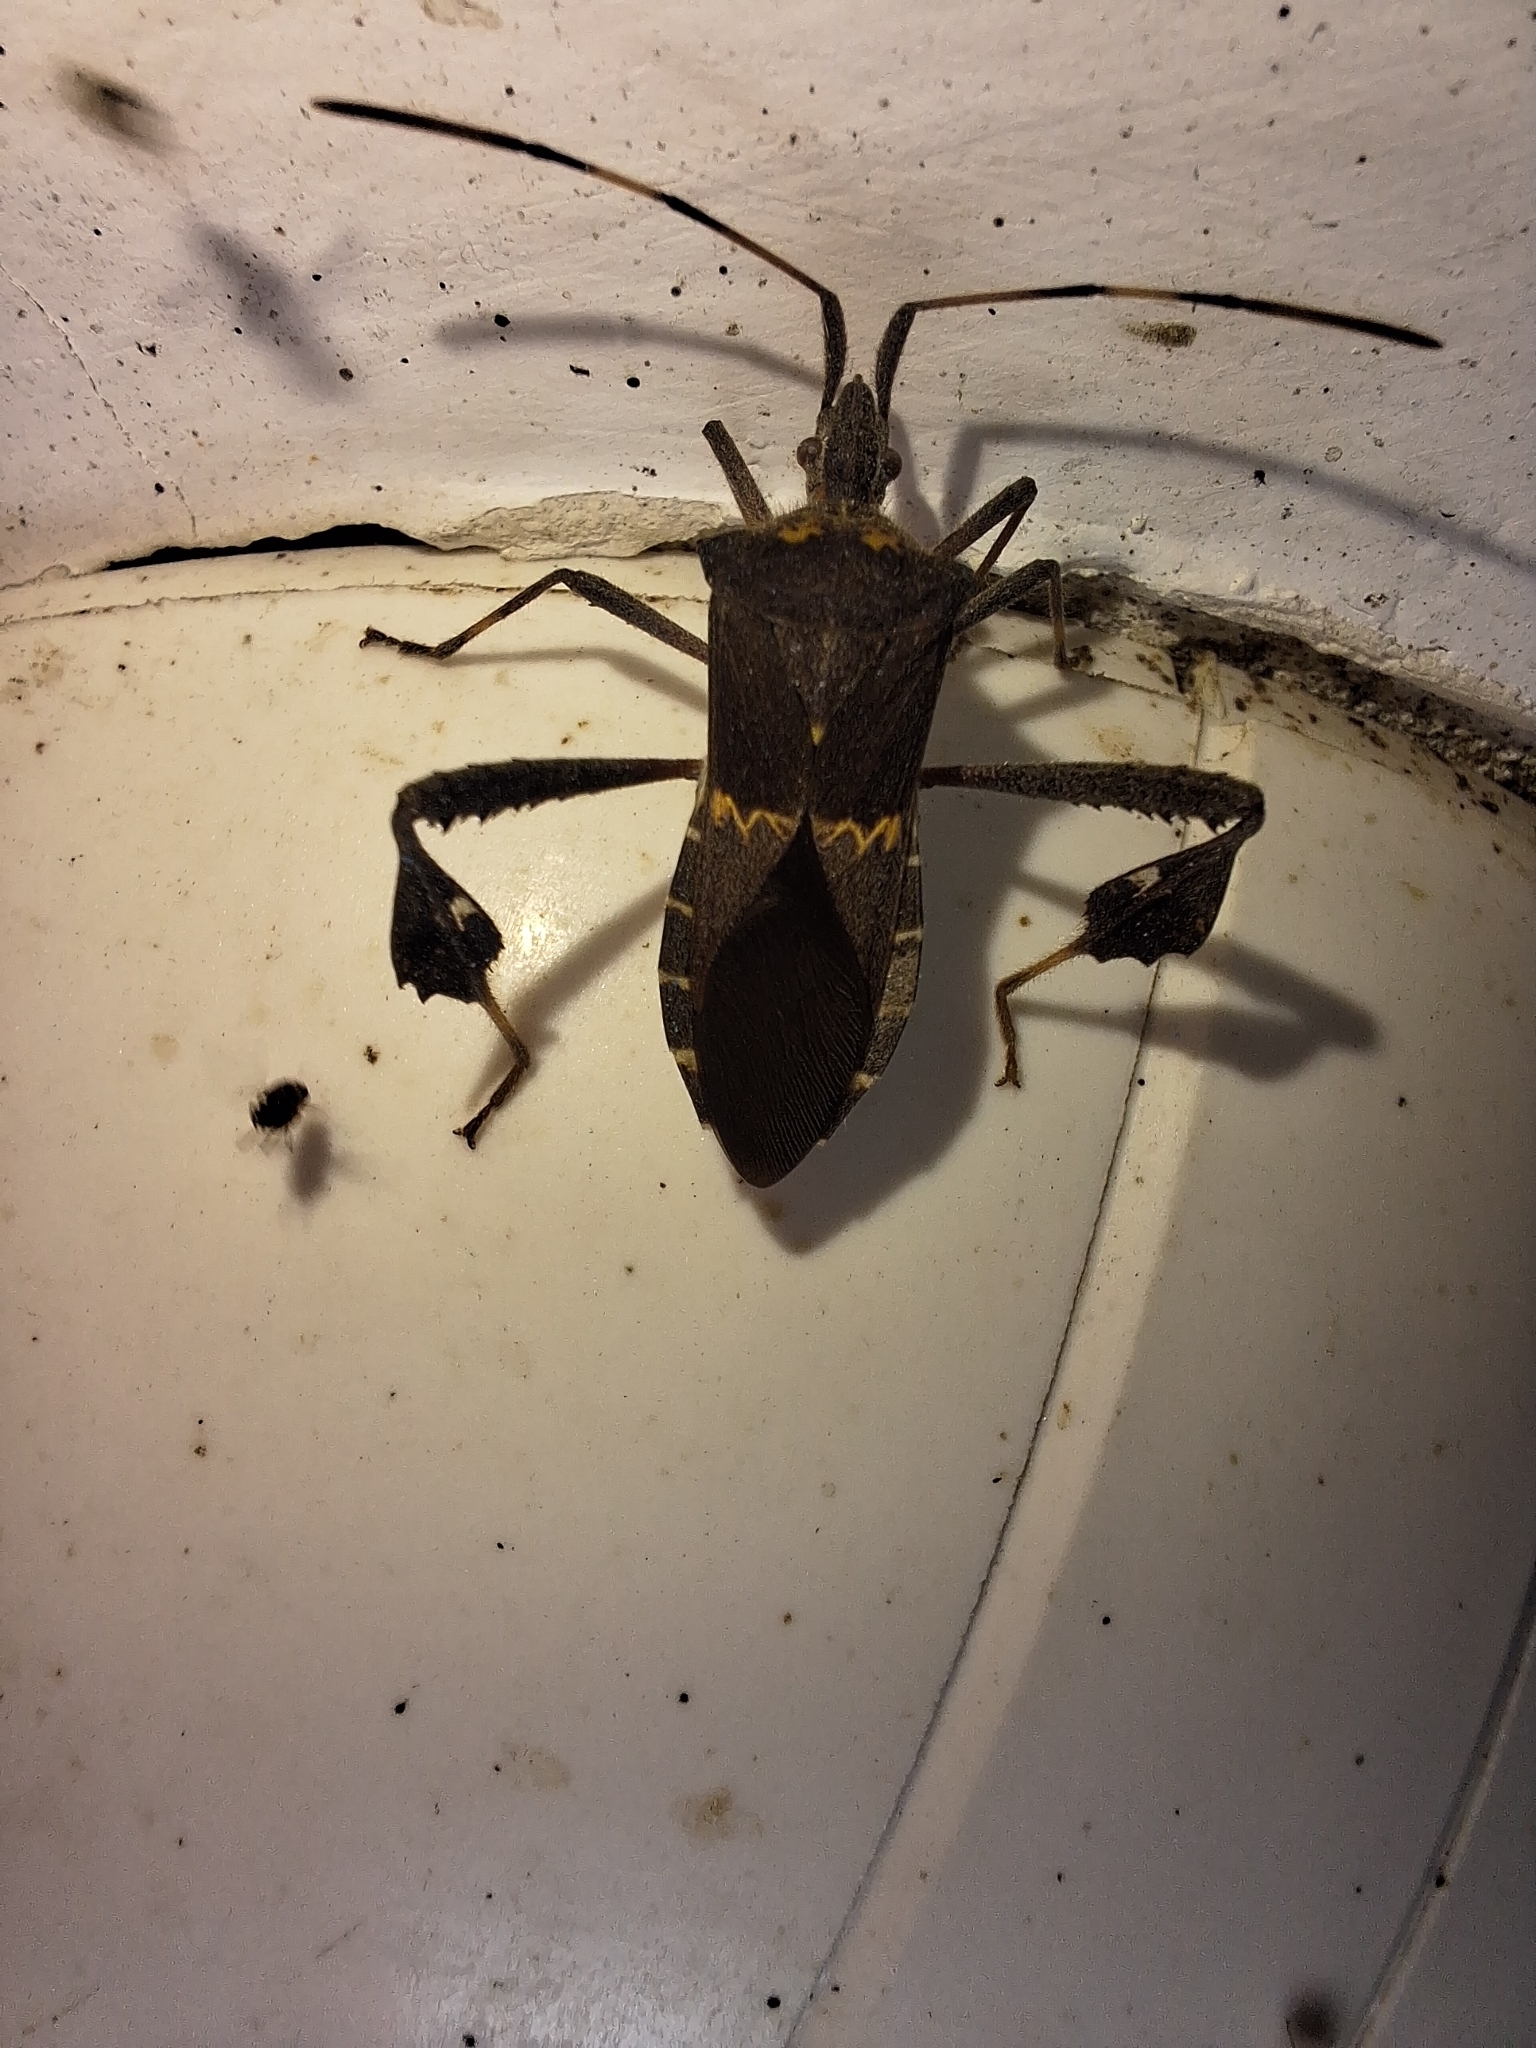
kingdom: Animalia
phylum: Arthropoda
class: Insecta
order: Hemiptera
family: Coreidae
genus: Leptoglossus
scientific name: Leptoglossus zonatus
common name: Large-legged bug
